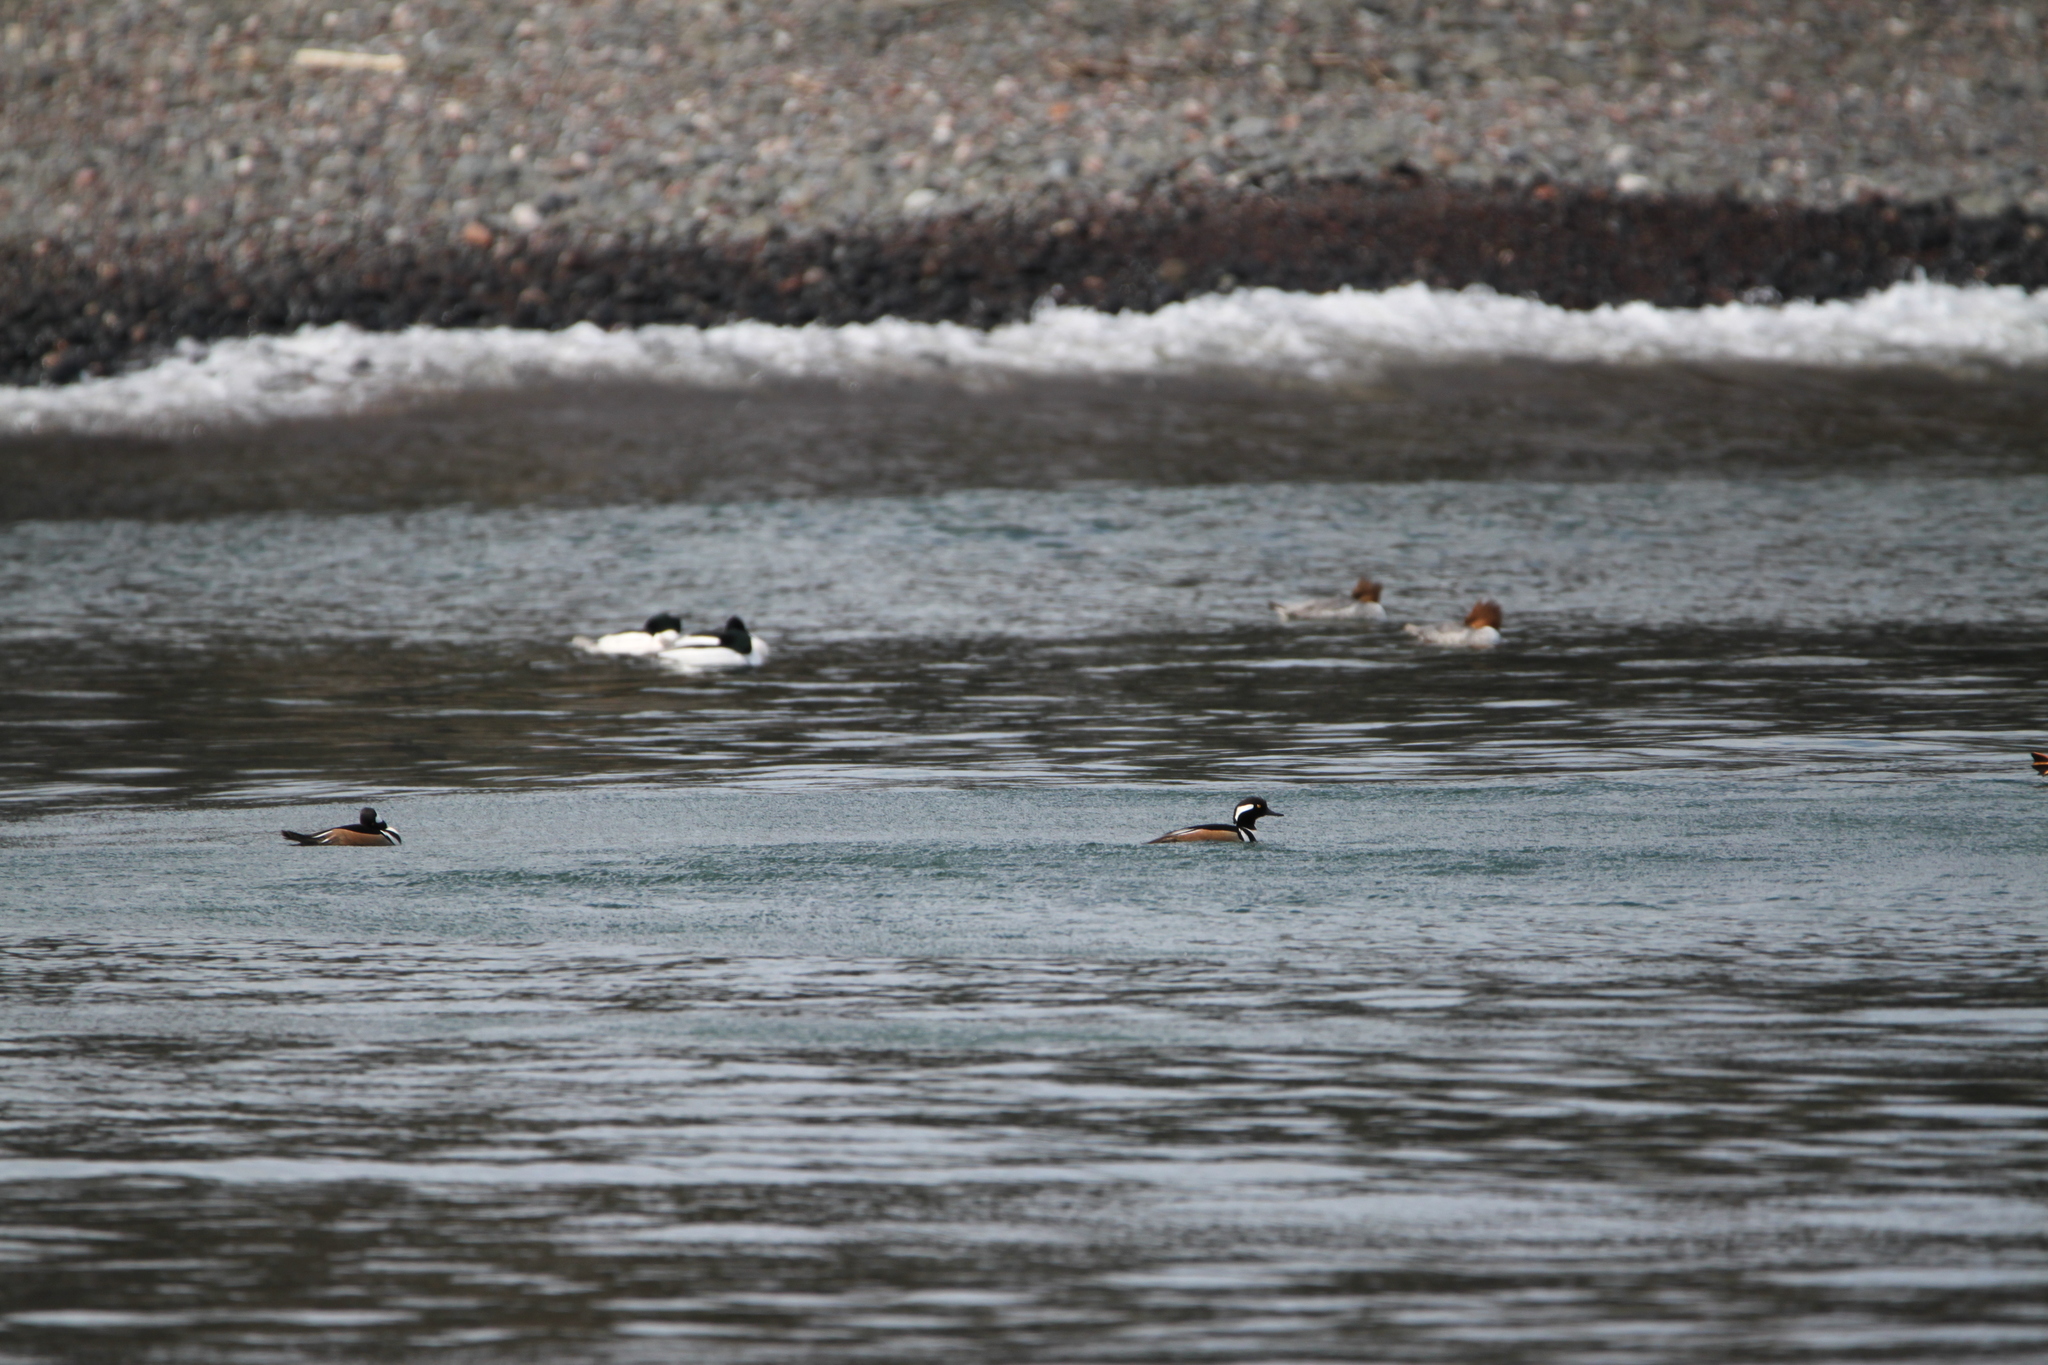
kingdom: Animalia
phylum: Chordata
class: Aves
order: Anseriformes
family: Anatidae
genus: Lophodytes
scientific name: Lophodytes cucullatus
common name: Hooded merganser
